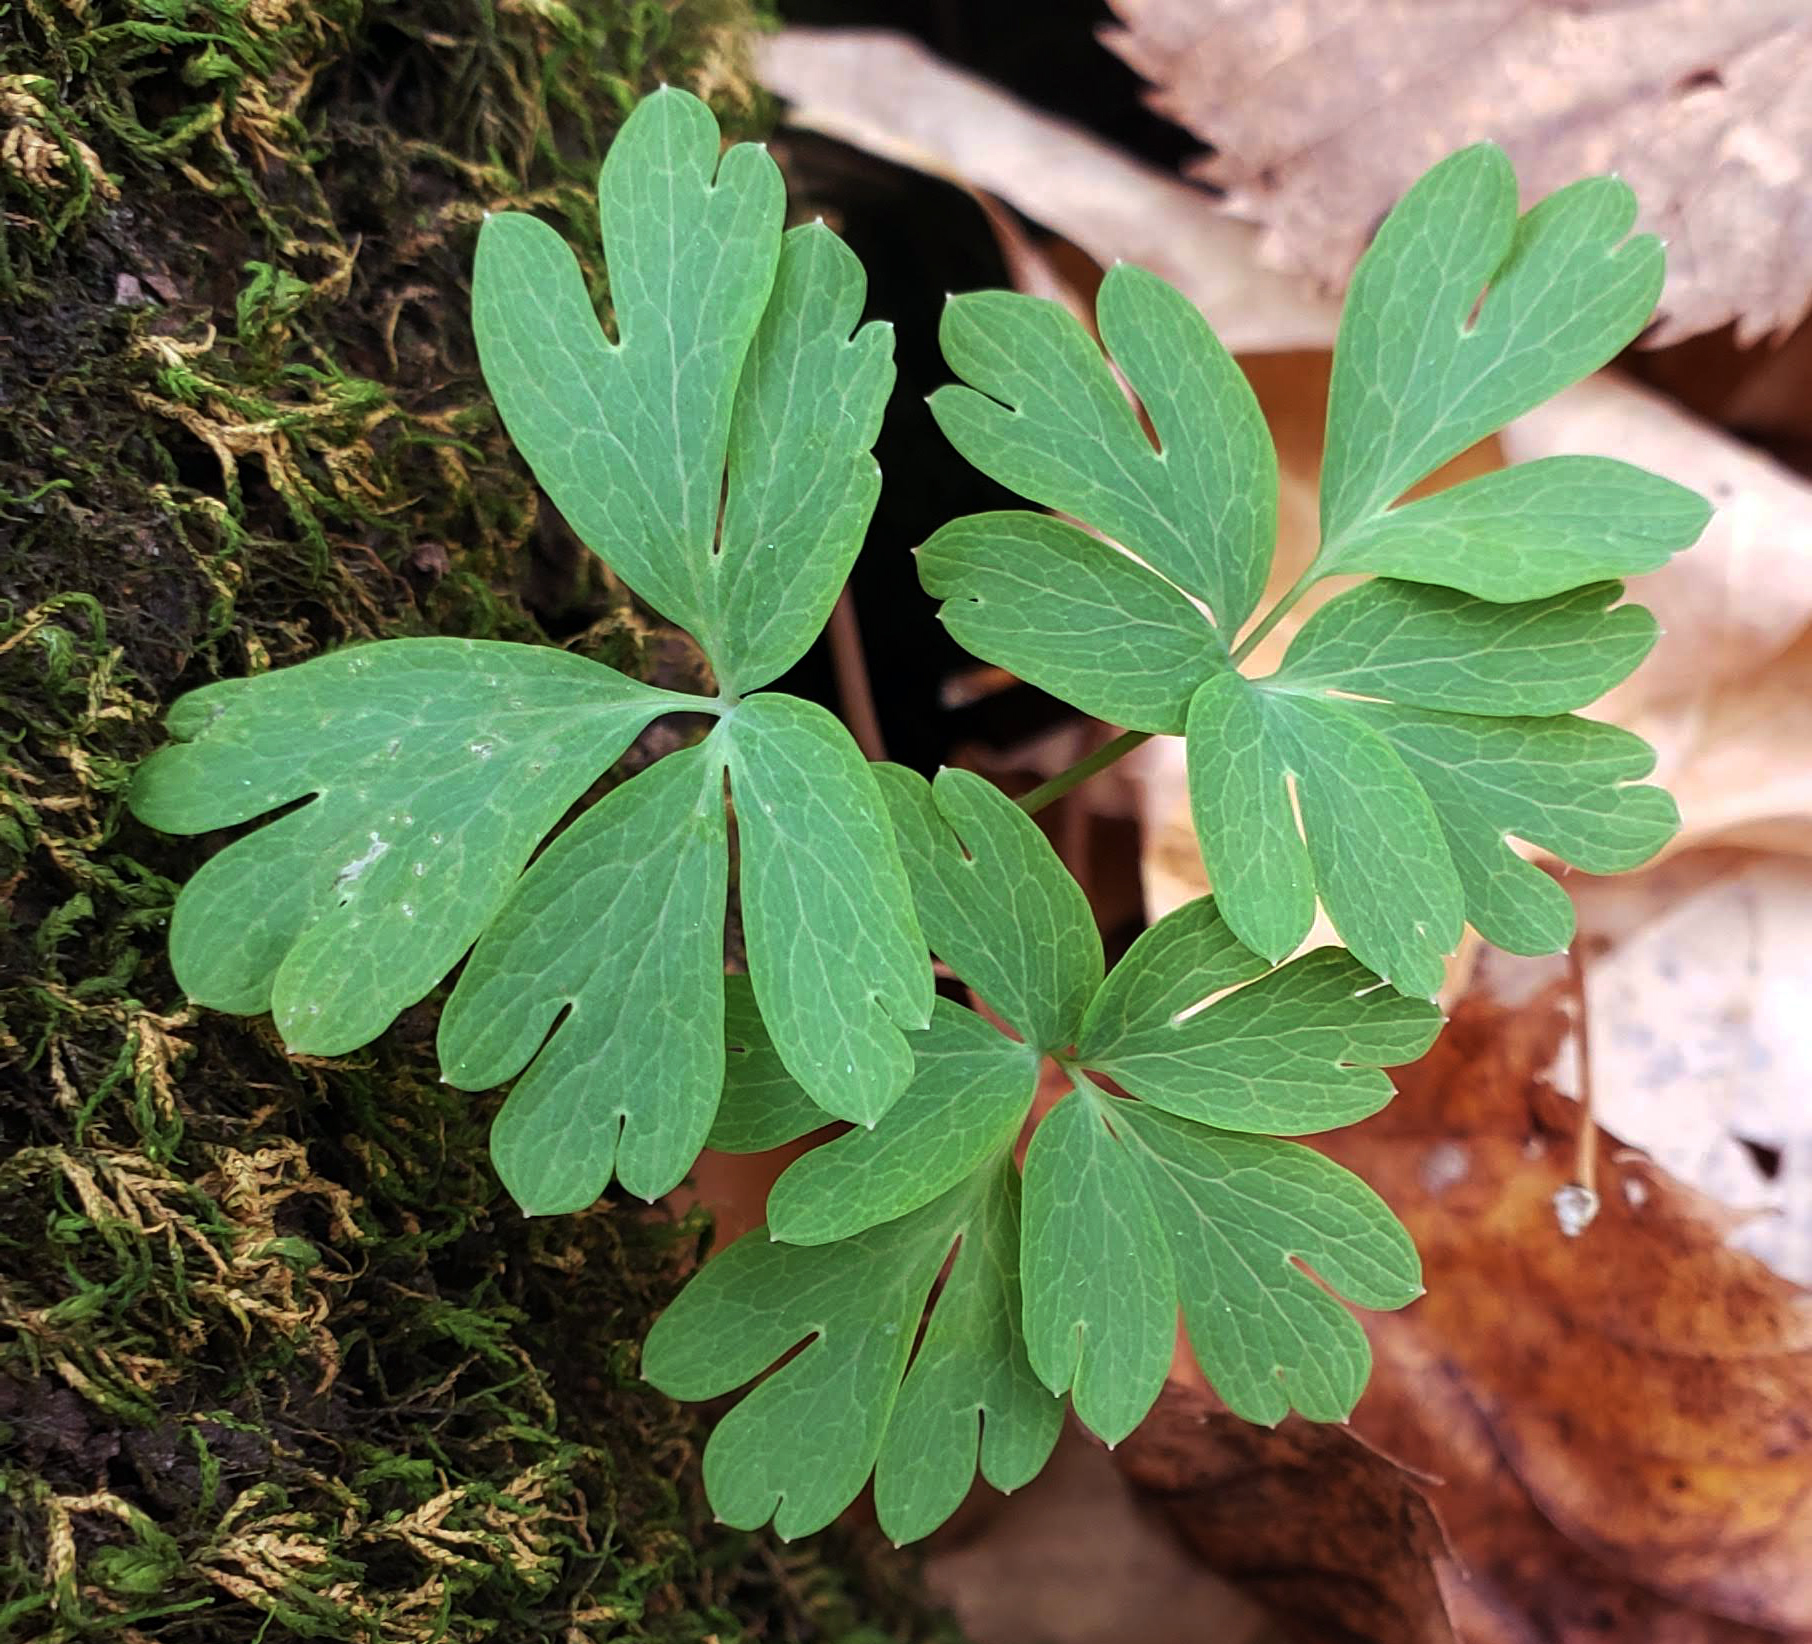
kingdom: Plantae
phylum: Tracheophyta
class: Magnoliopsida
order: Ranunculales
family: Ranunculaceae
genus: Enemion
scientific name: Enemion biternatum
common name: Eastern false rue-anemone
